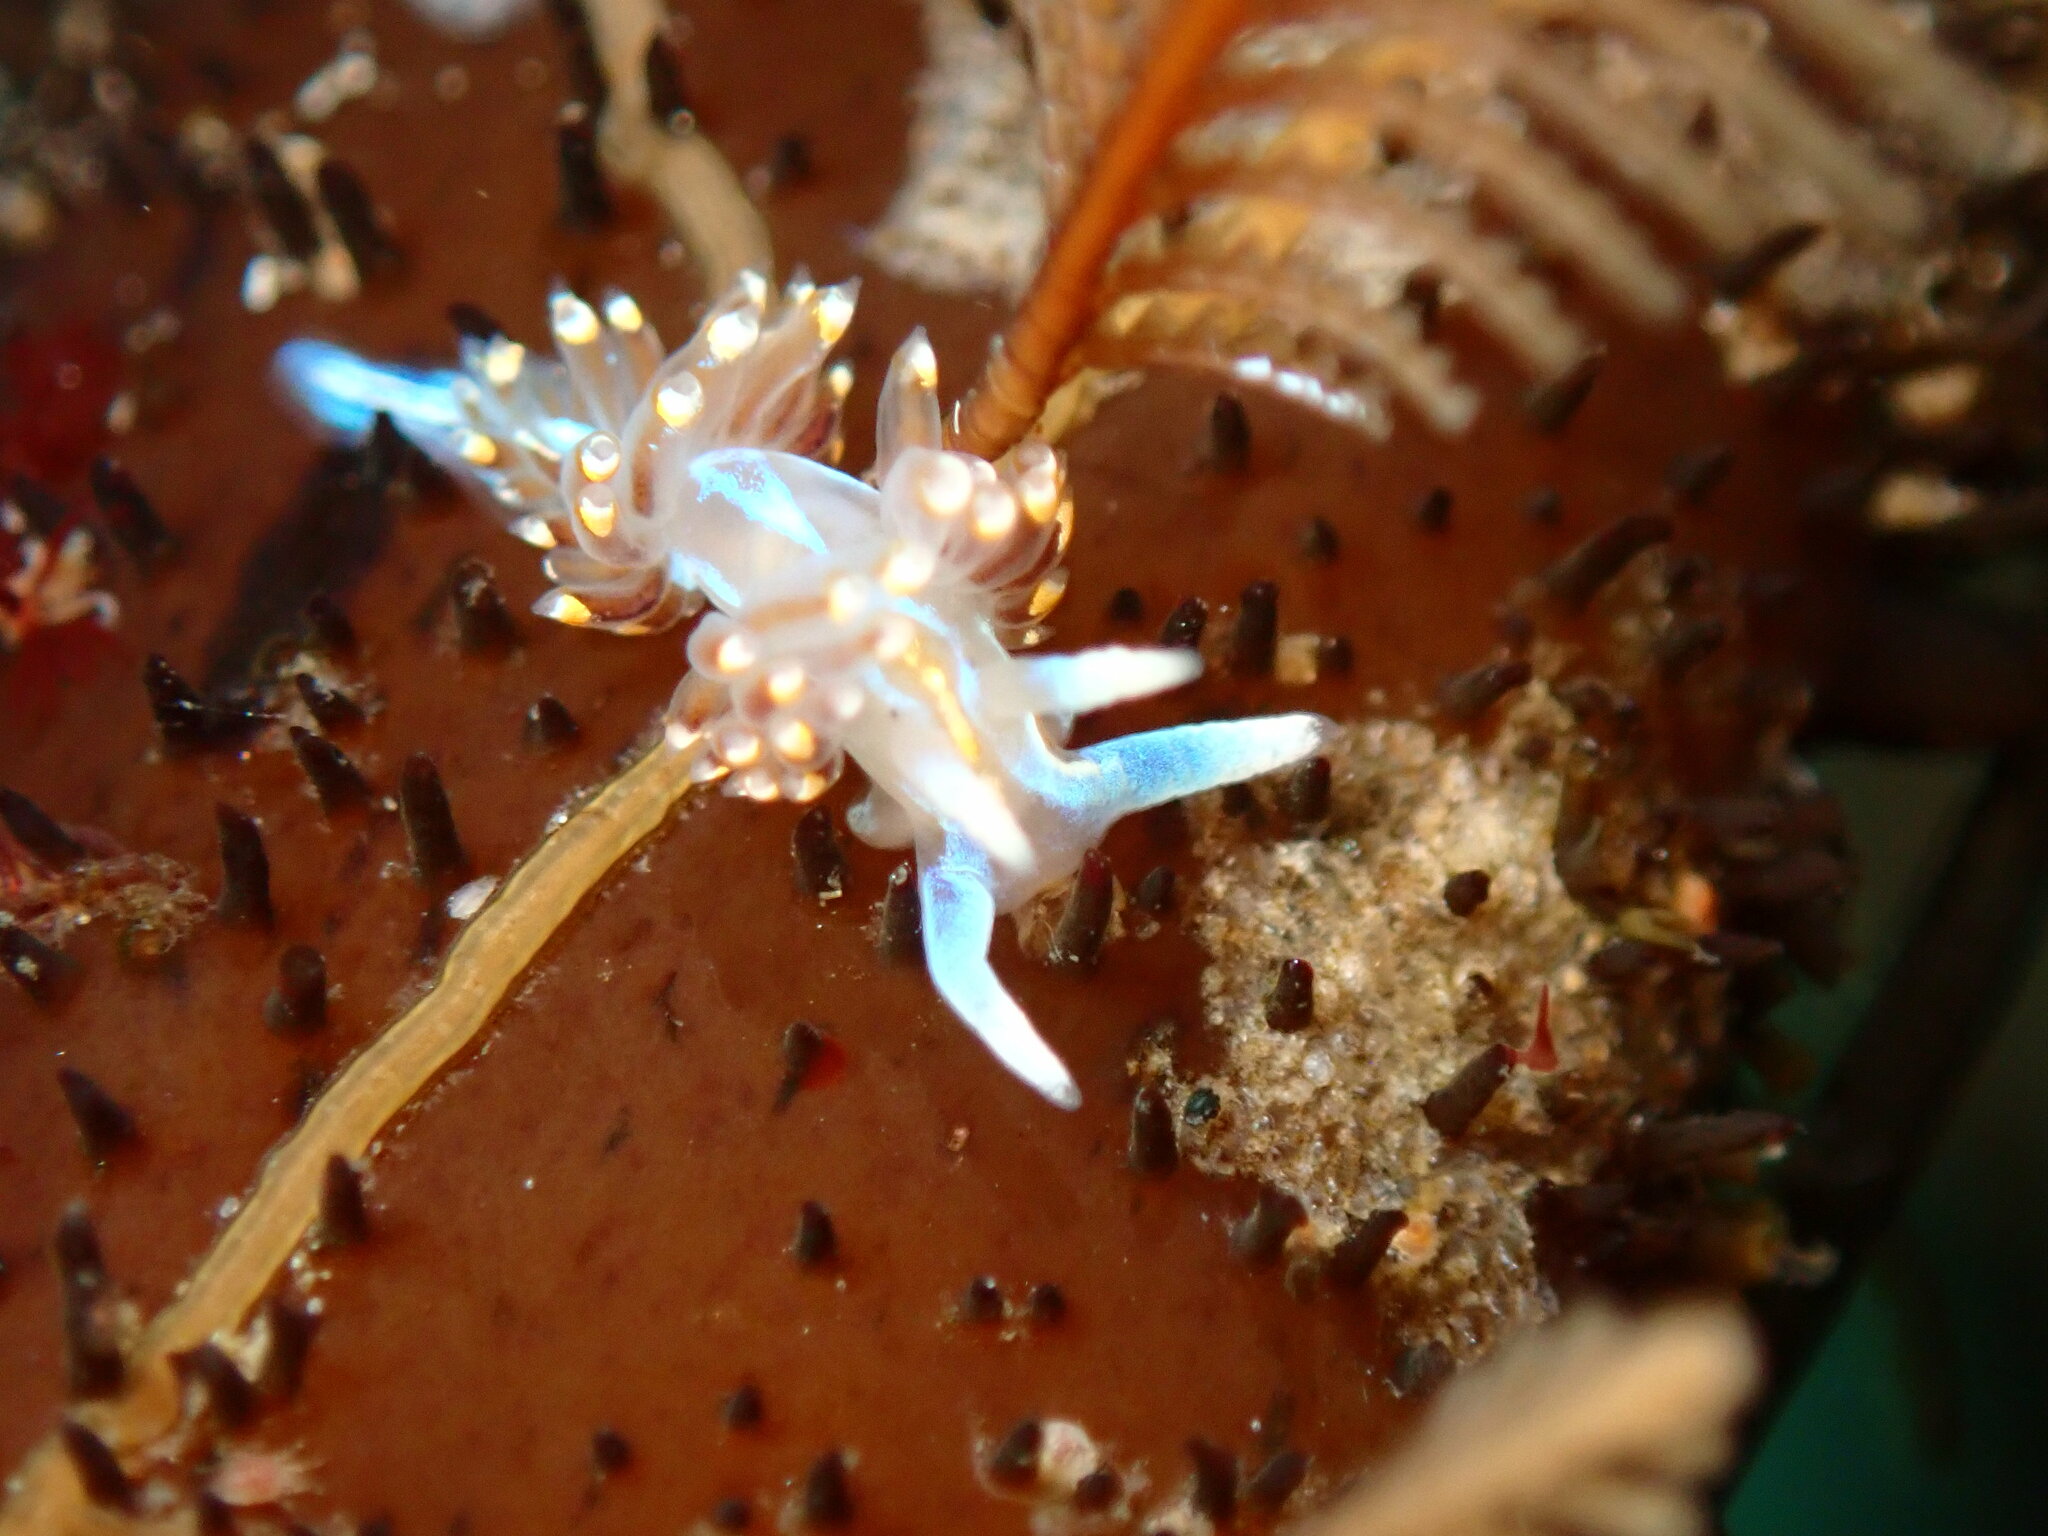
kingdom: Animalia
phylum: Mollusca
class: Gastropoda
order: Nudibranchia
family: Myrrhinidae
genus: Hermissenda
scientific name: Hermissenda opalescens
